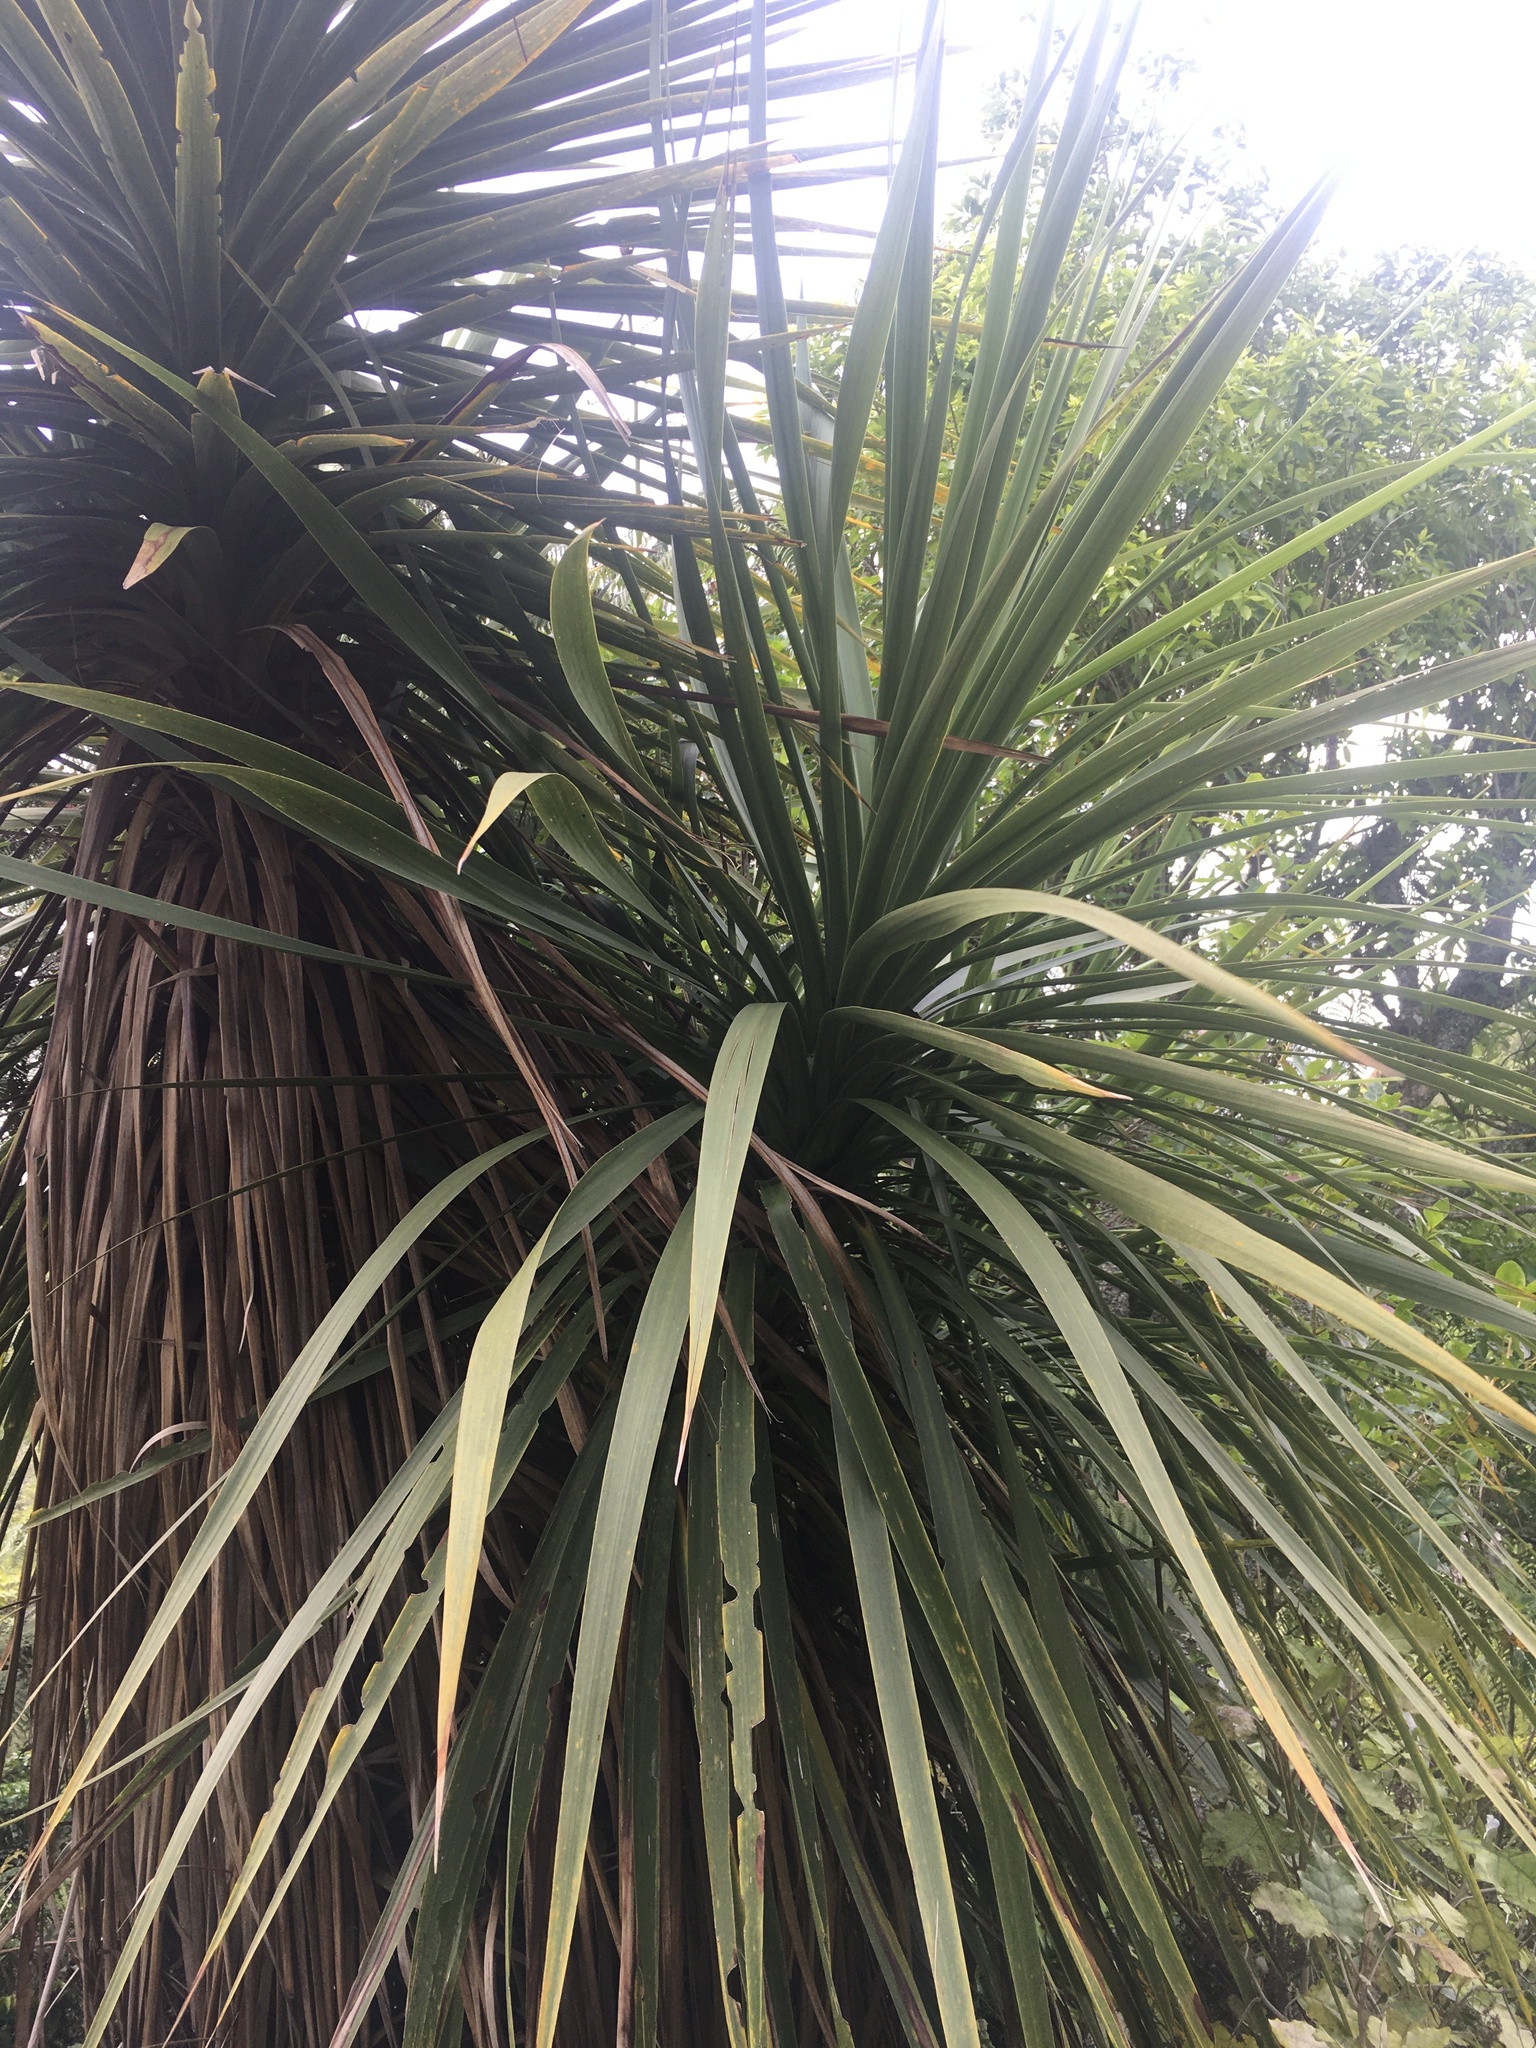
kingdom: Plantae
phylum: Tracheophyta
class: Liliopsida
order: Asparagales
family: Asparagaceae
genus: Cordyline
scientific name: Cordyline australis
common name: Cabbage-palm
